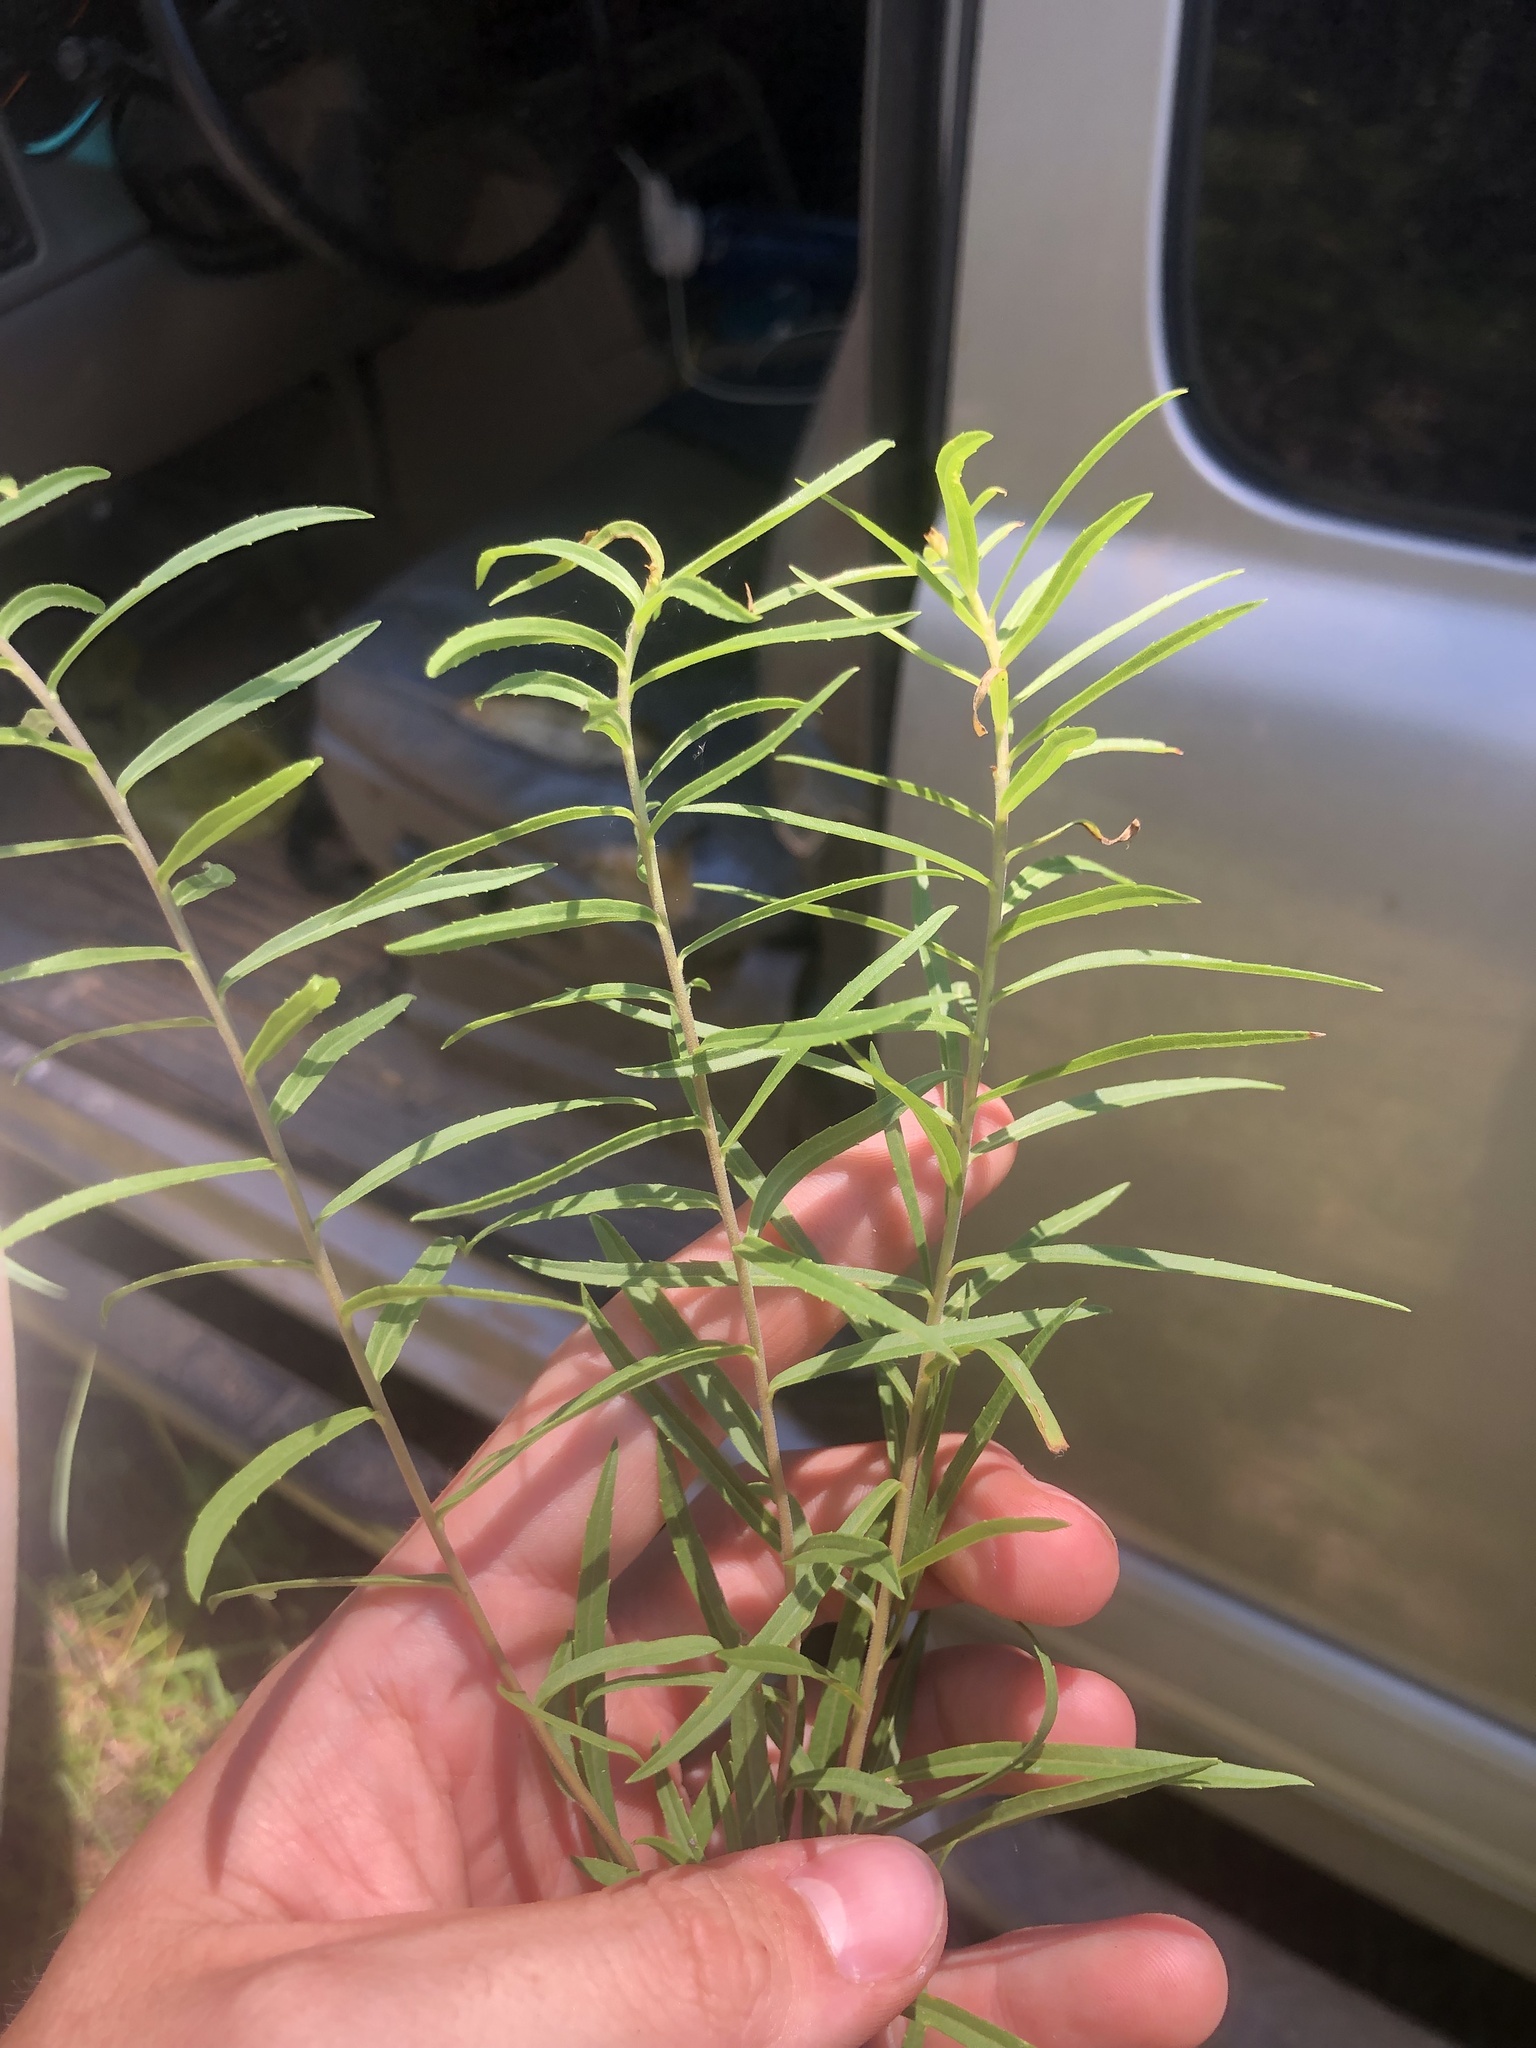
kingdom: Plantae
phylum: Tracheophyta
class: Magnoliopsida
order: Asterales
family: Asteraceae
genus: Solidago
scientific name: Solidago tortifolia
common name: Twisted-leaf goldenrod
